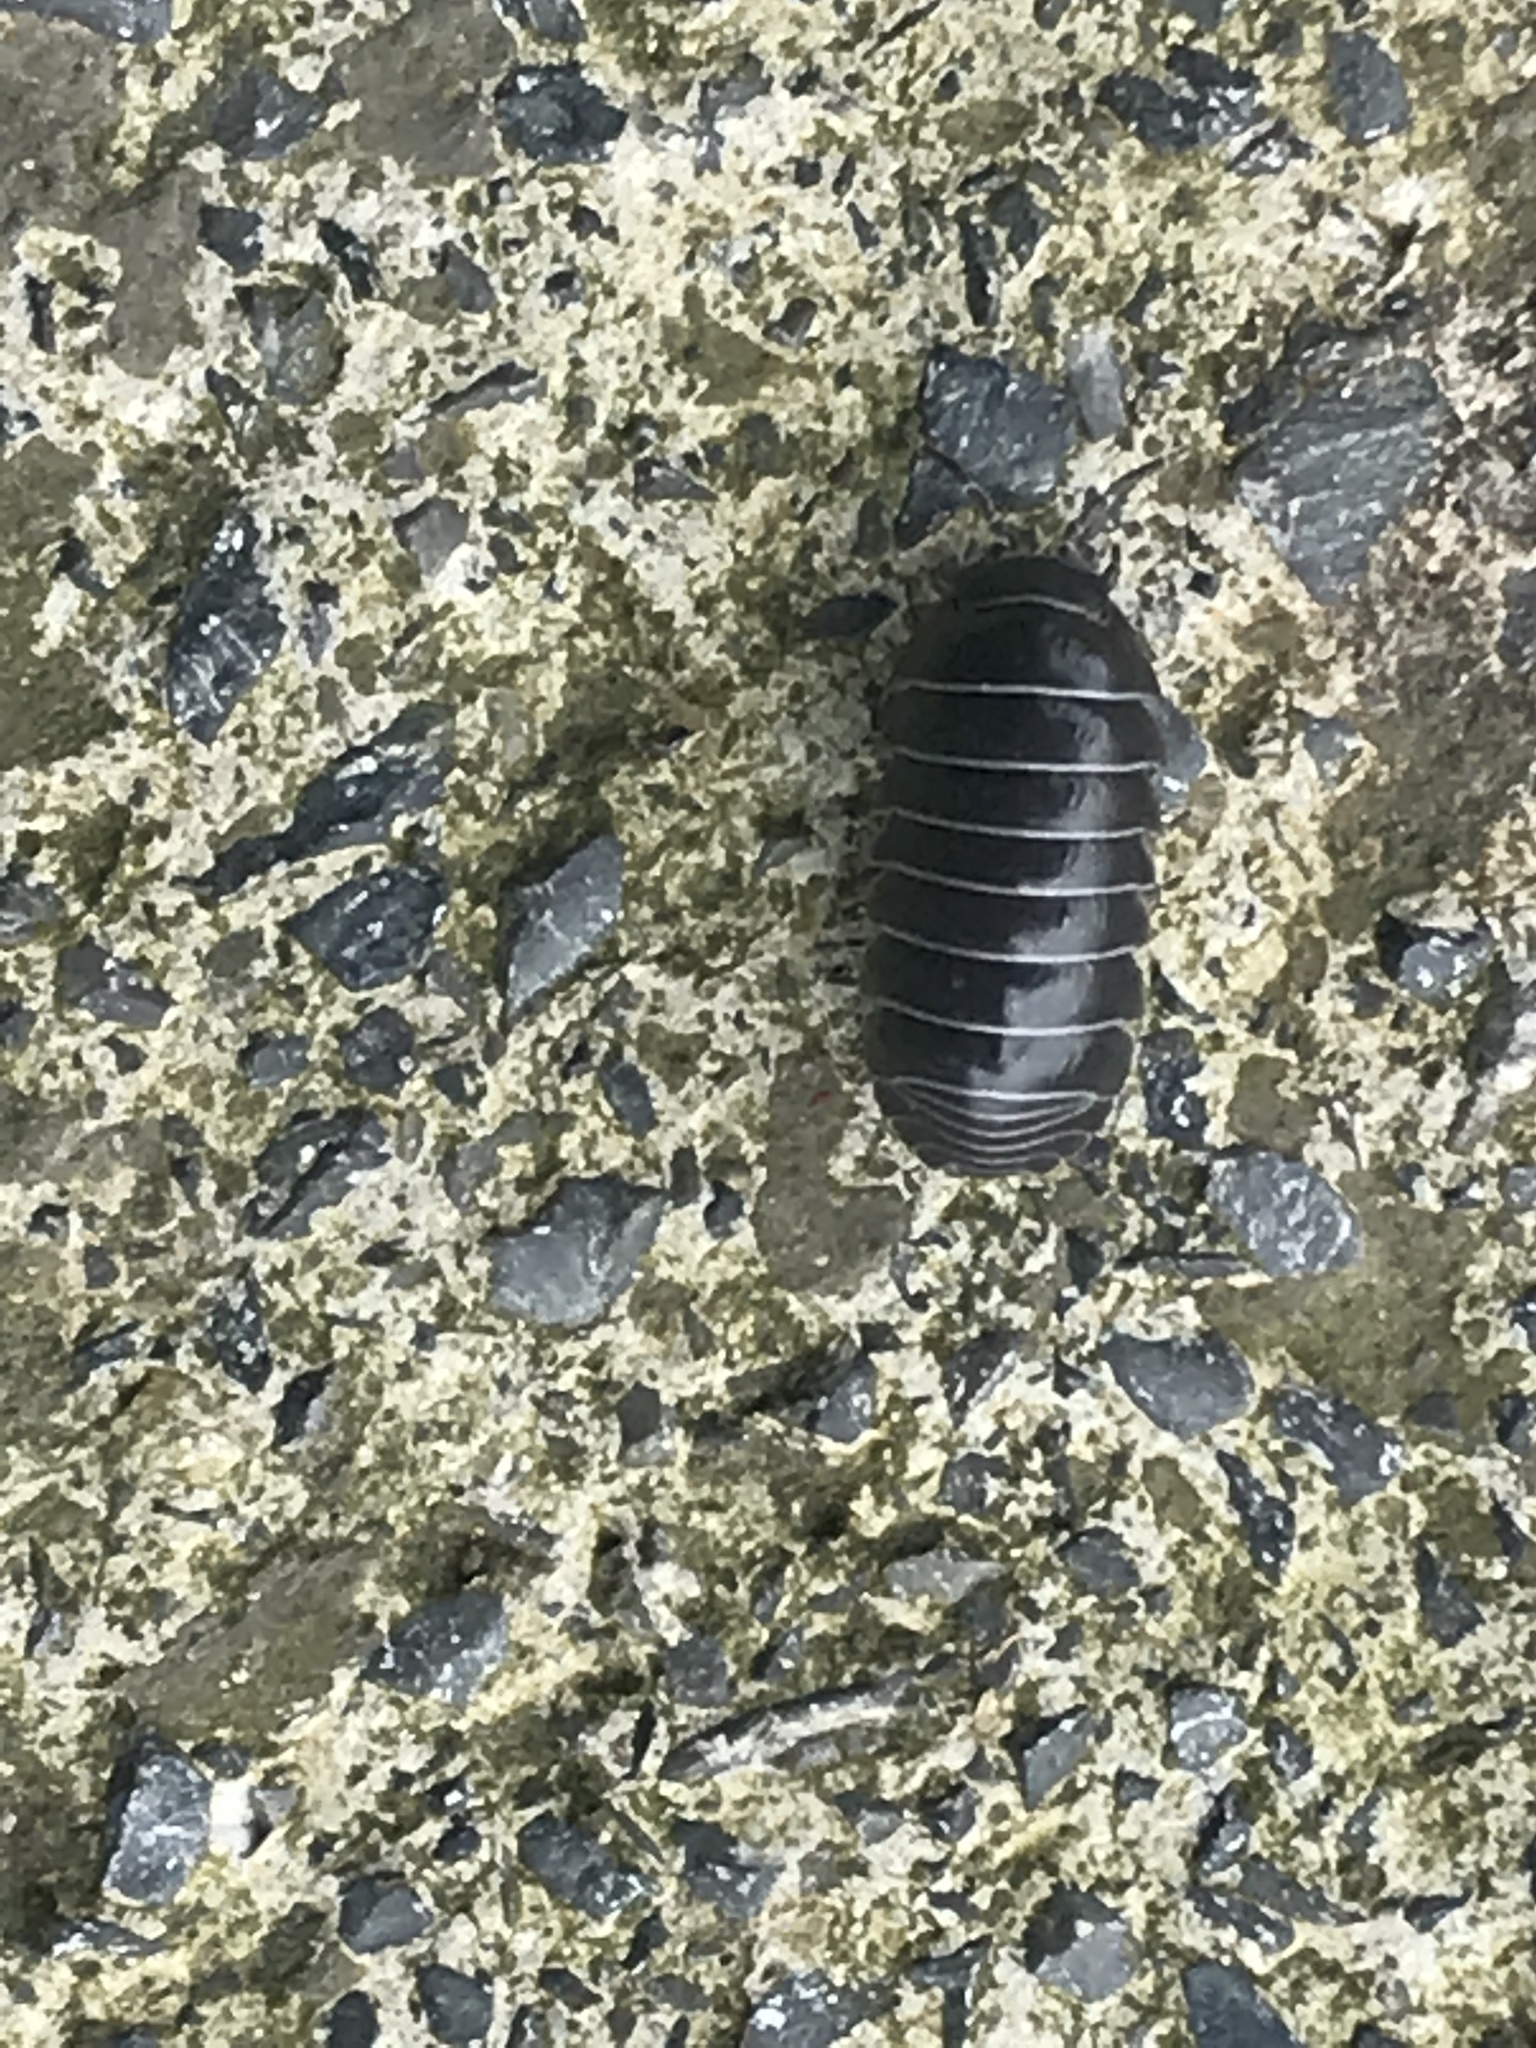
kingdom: Animalia
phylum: Arthropoda
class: Malacostraca
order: Isopoda
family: Armadillidiidae
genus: Armadillidium
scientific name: Armadillidium vulgare
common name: Common pill woodlouse
